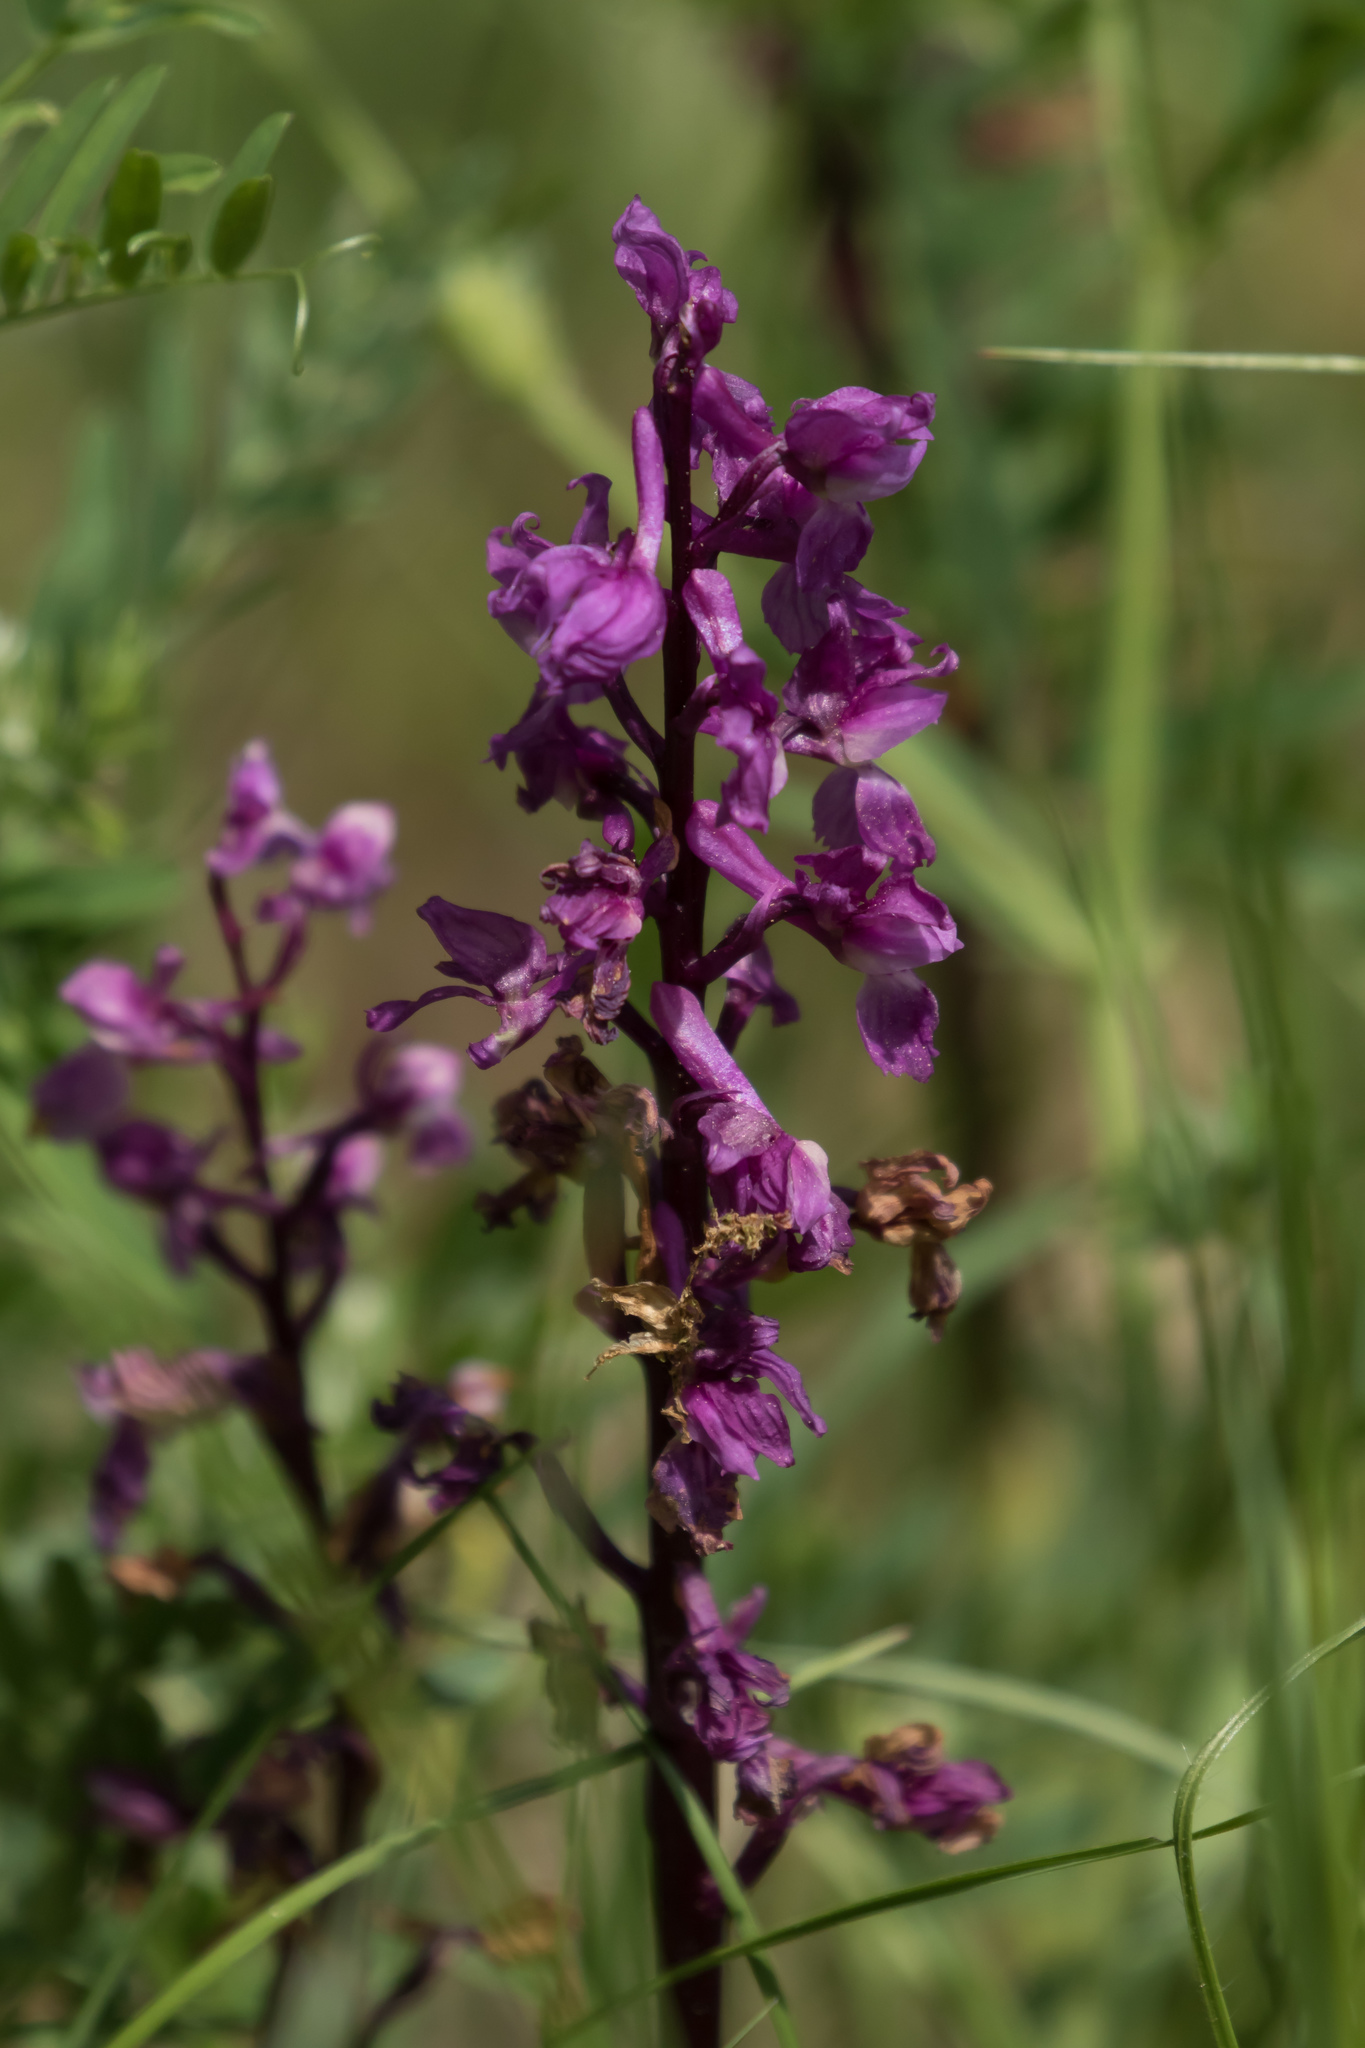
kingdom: Plantae
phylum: Tracheophyta
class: Liliopsida
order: Asparagales
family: Orchidaceae
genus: Orchis
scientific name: Orchis mascula
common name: Early-purple orchid
